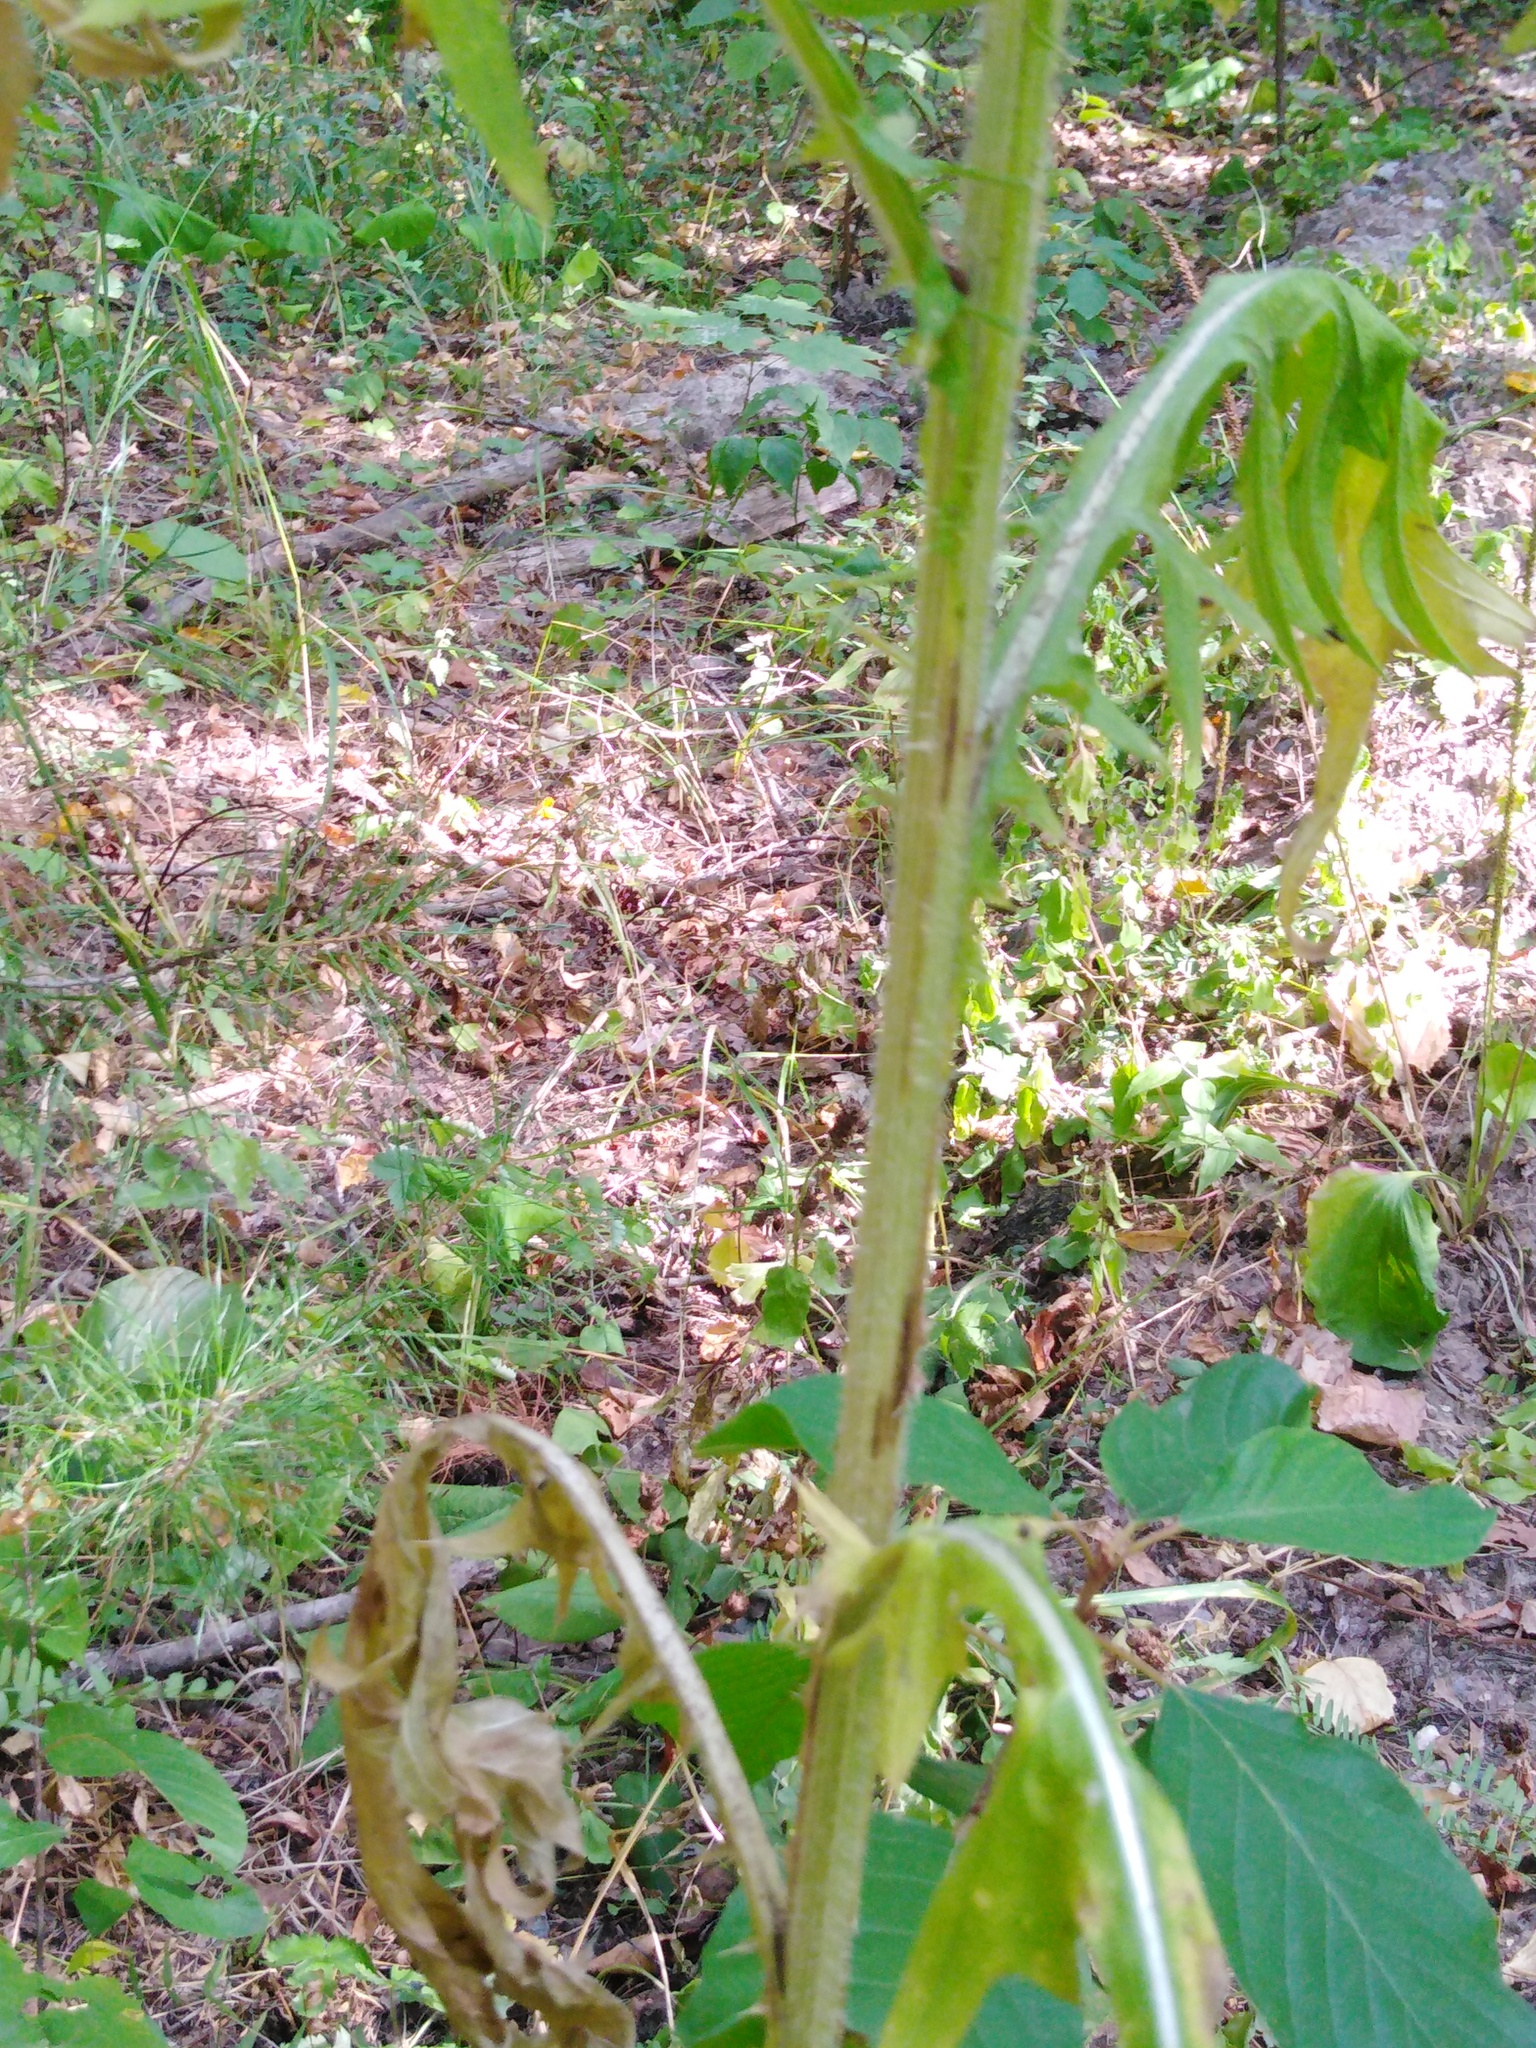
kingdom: Plantae
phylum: Tracheophyta
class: Magnoliopsida
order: Asterales
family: Asteraceae
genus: Cirsium
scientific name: Cirsium vulgare
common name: Bull thistle
